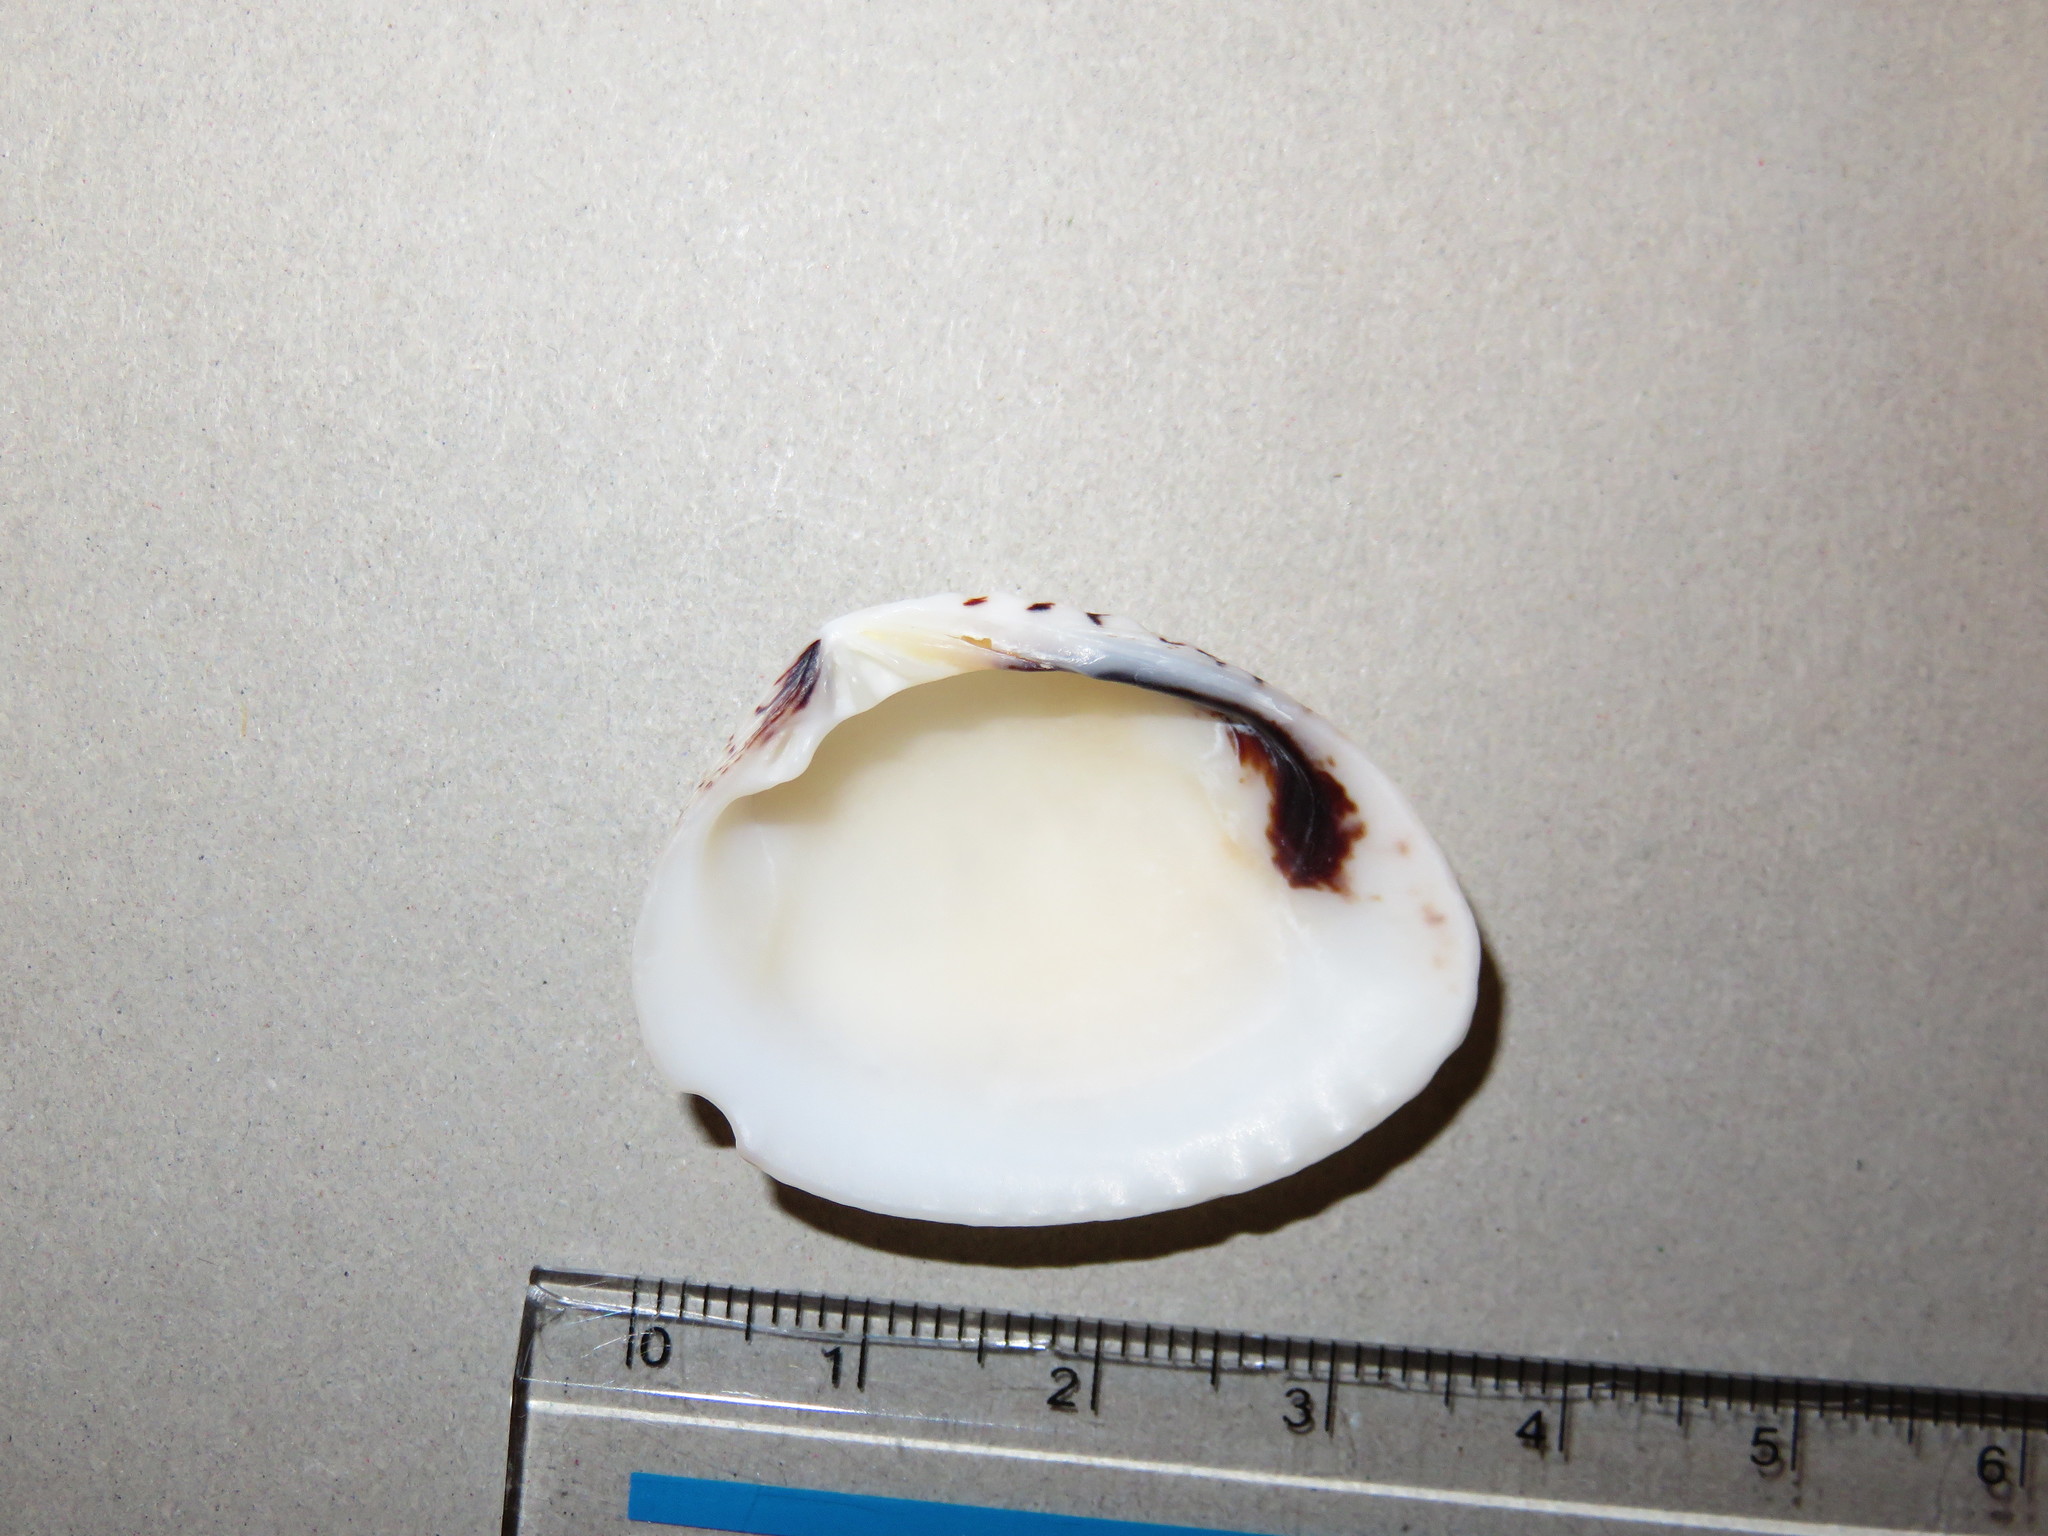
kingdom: Animalia
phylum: Mollusca
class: Bivalvia
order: Venerida
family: Veneridae
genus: Gafrarium
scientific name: Gafrarium pectinatum
